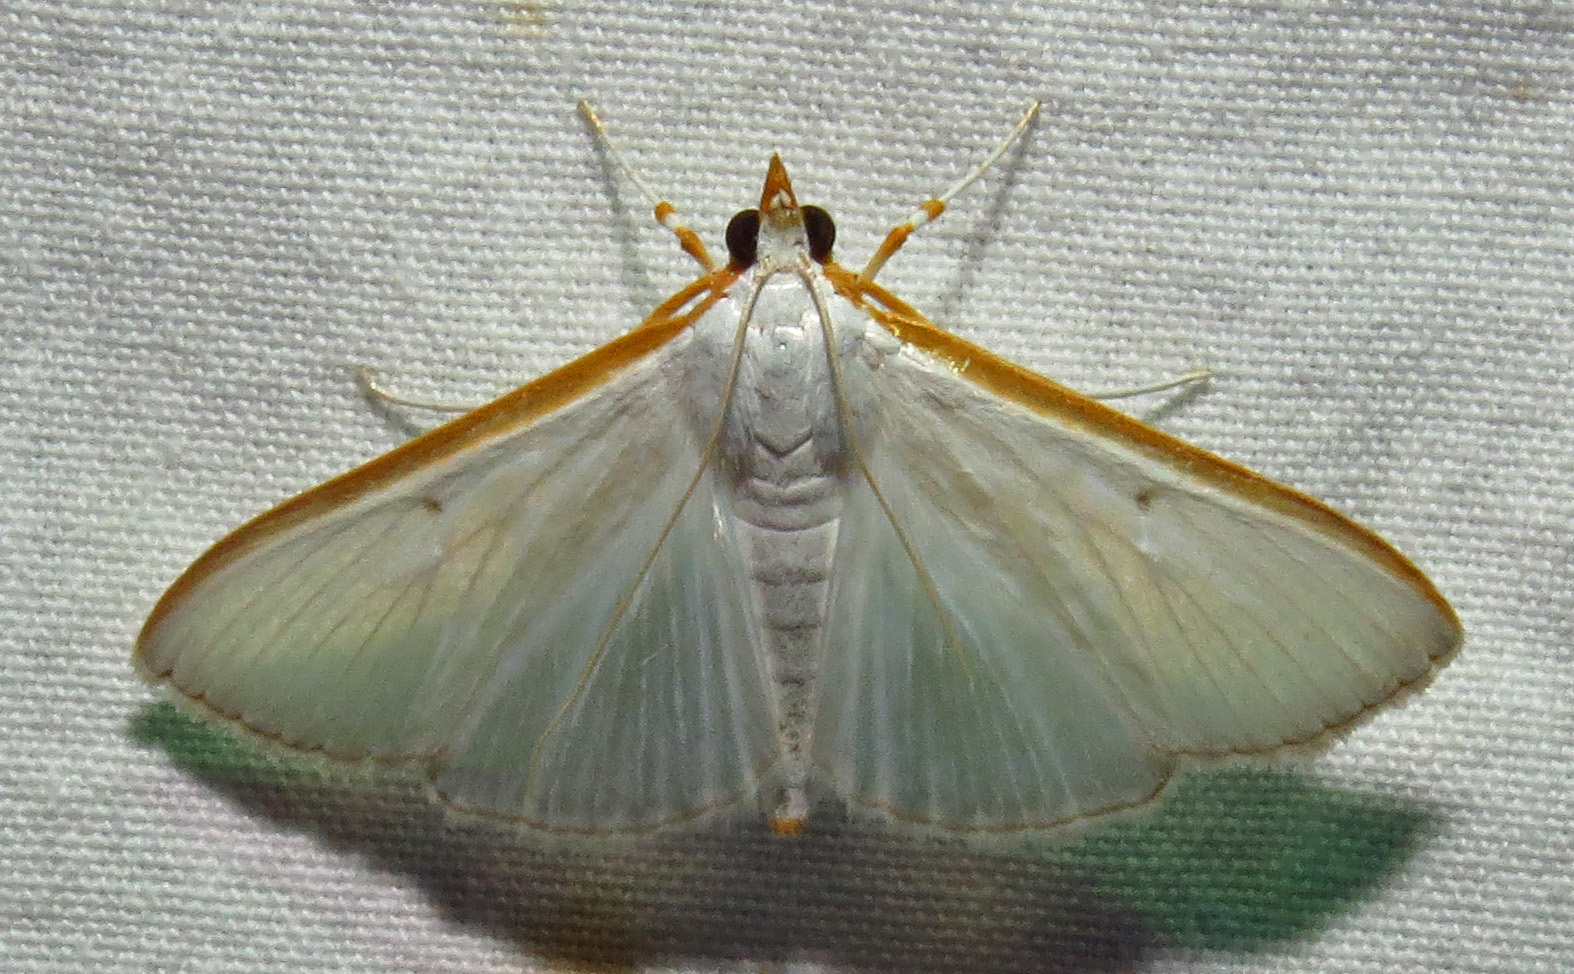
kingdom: Animalia
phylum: Arthropoda
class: Insecta
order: Lepidoptera
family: Crambidae
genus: Diaphania
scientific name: Diaphania costata
